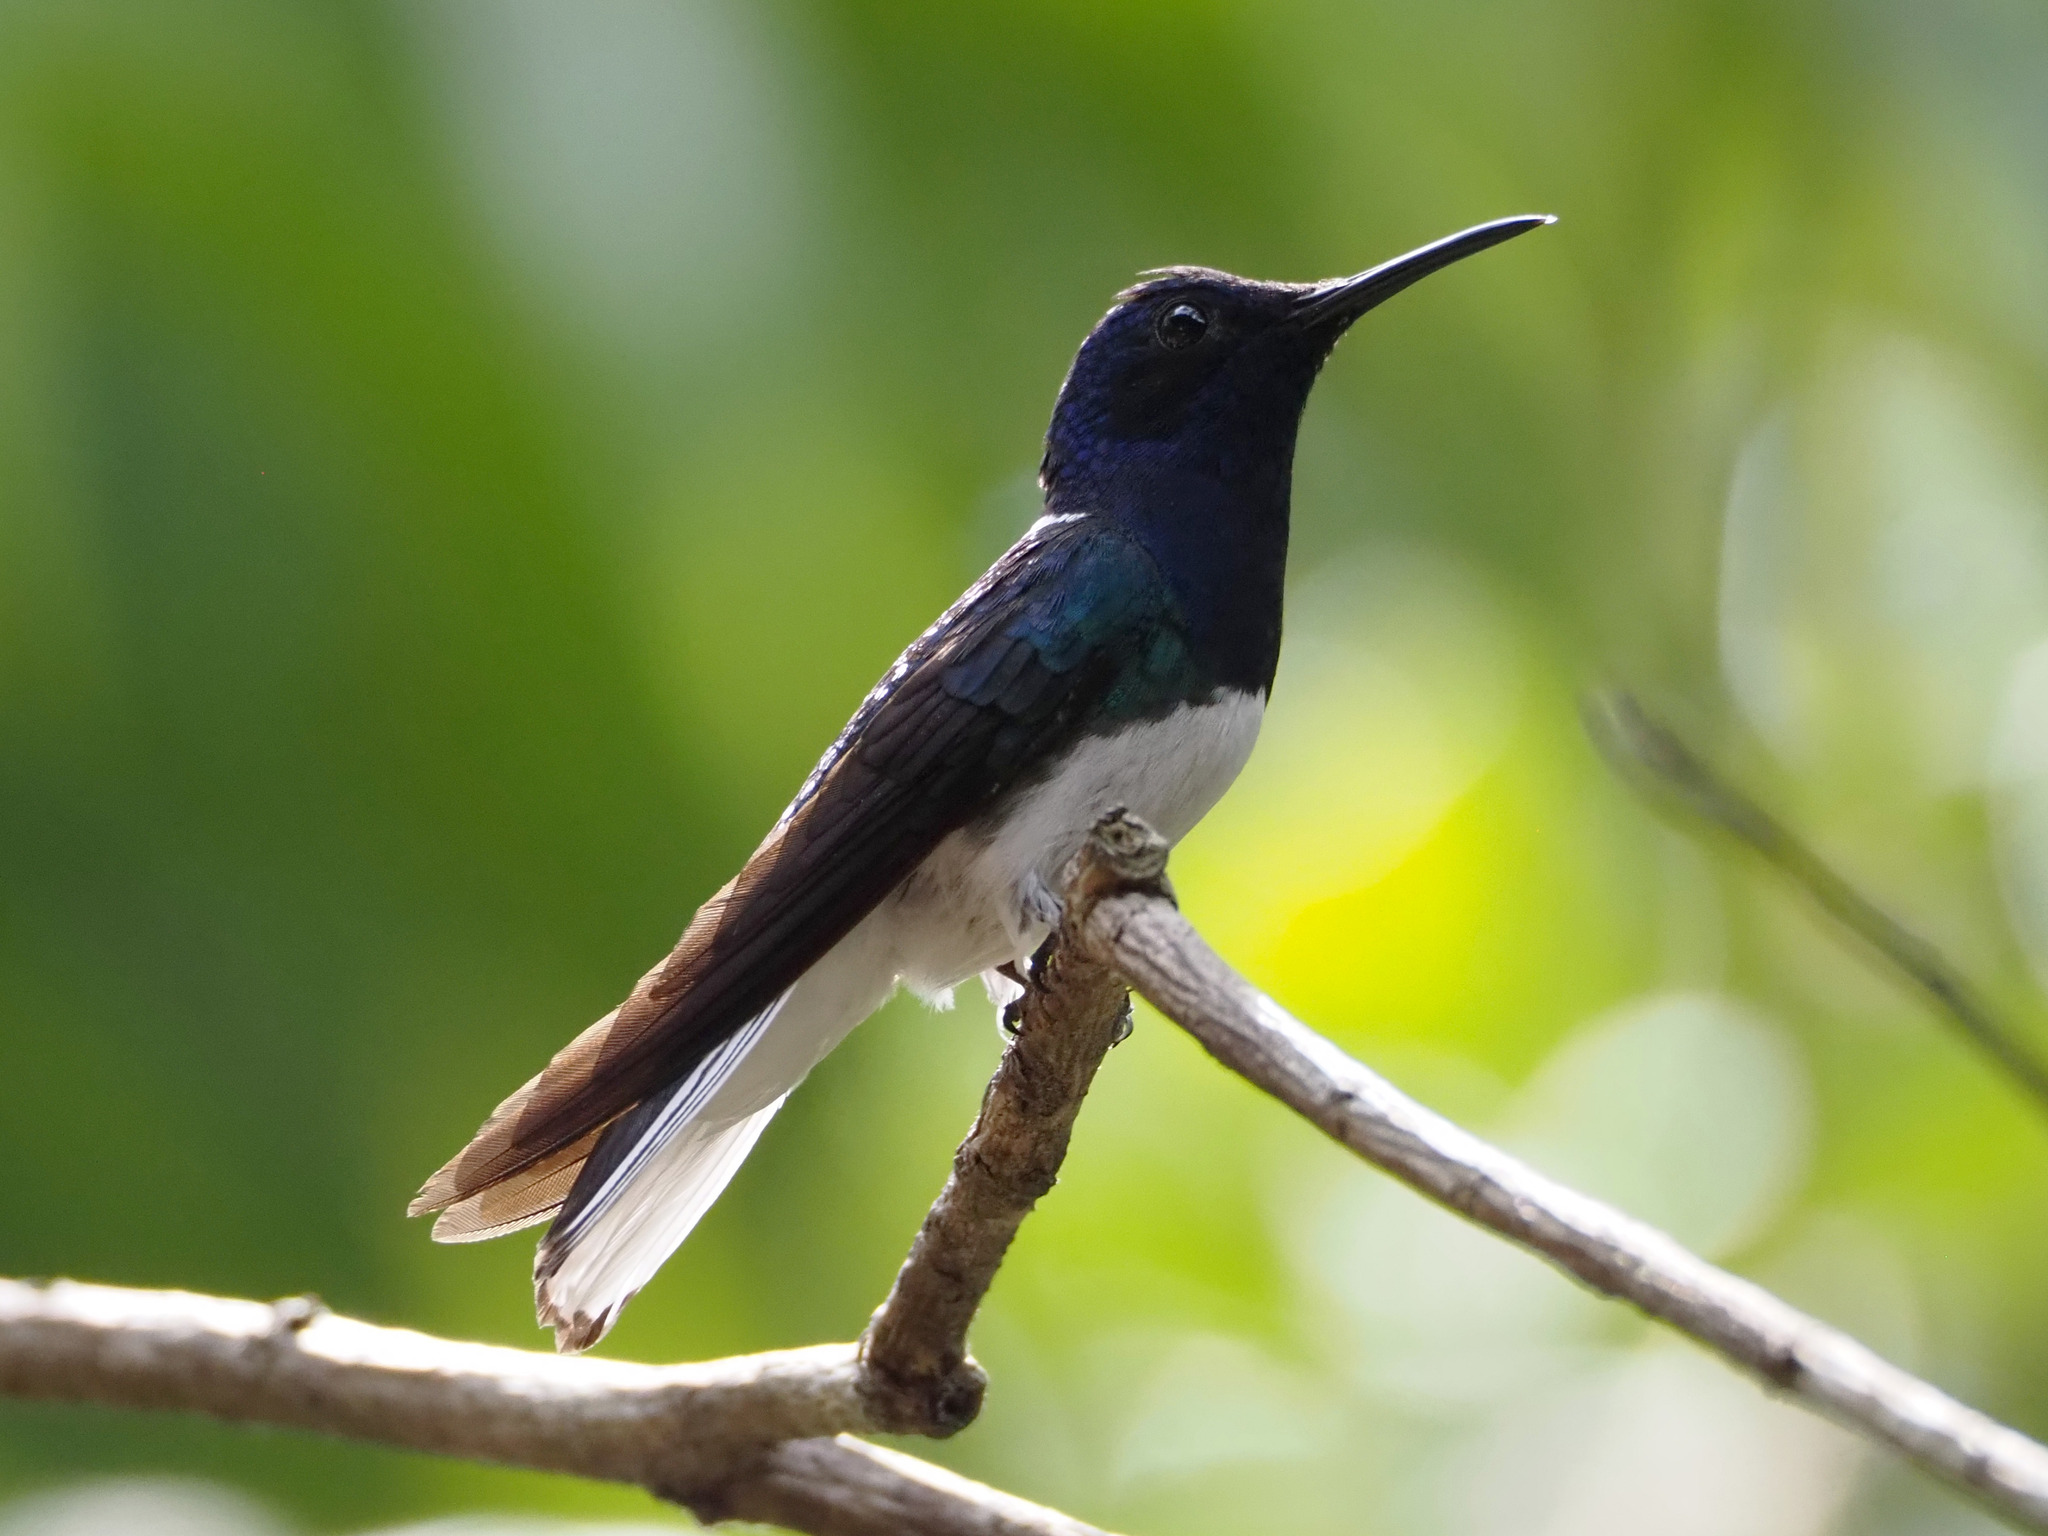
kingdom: Animalia
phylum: Chordata
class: Aves
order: Apodiformes
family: Trochilidae
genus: Florisuga
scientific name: Florisuga mellivora
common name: White-necked jacobin
